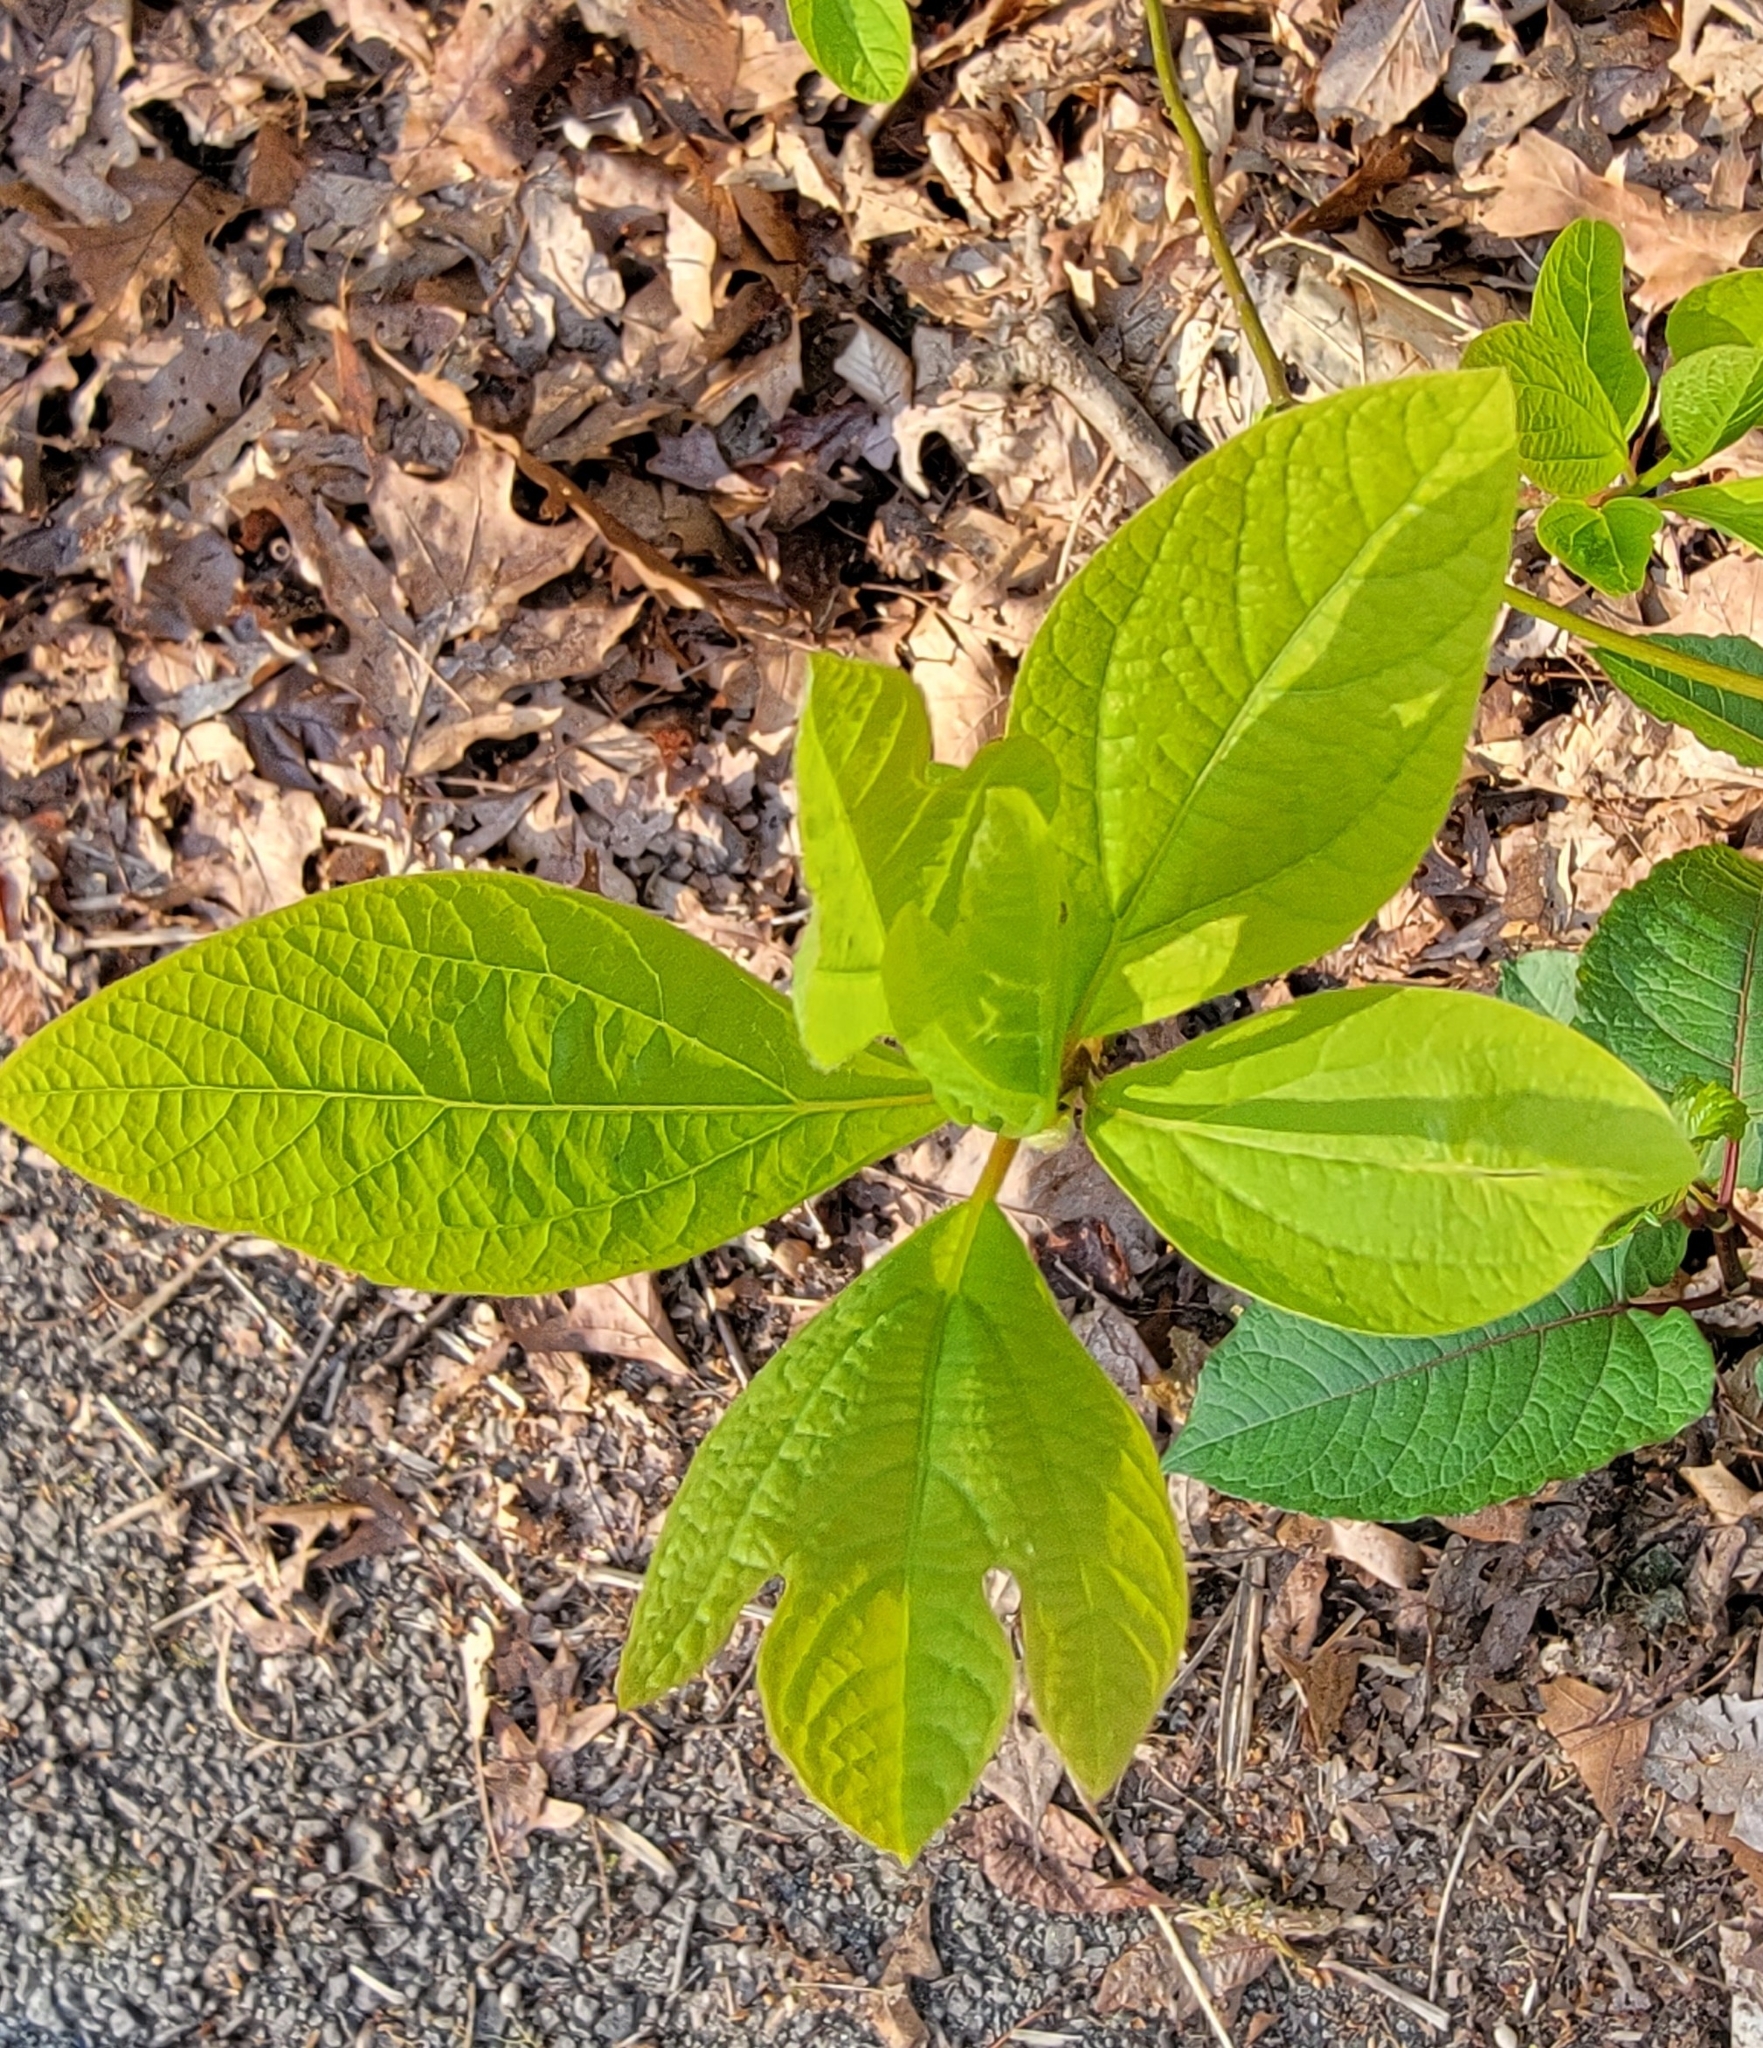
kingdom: Plantae
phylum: Tracheophyta
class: Magnoliopsida
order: Laurales
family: Lauraceae
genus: Sassafras
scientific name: Sassafras albidum
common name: Sassafras
